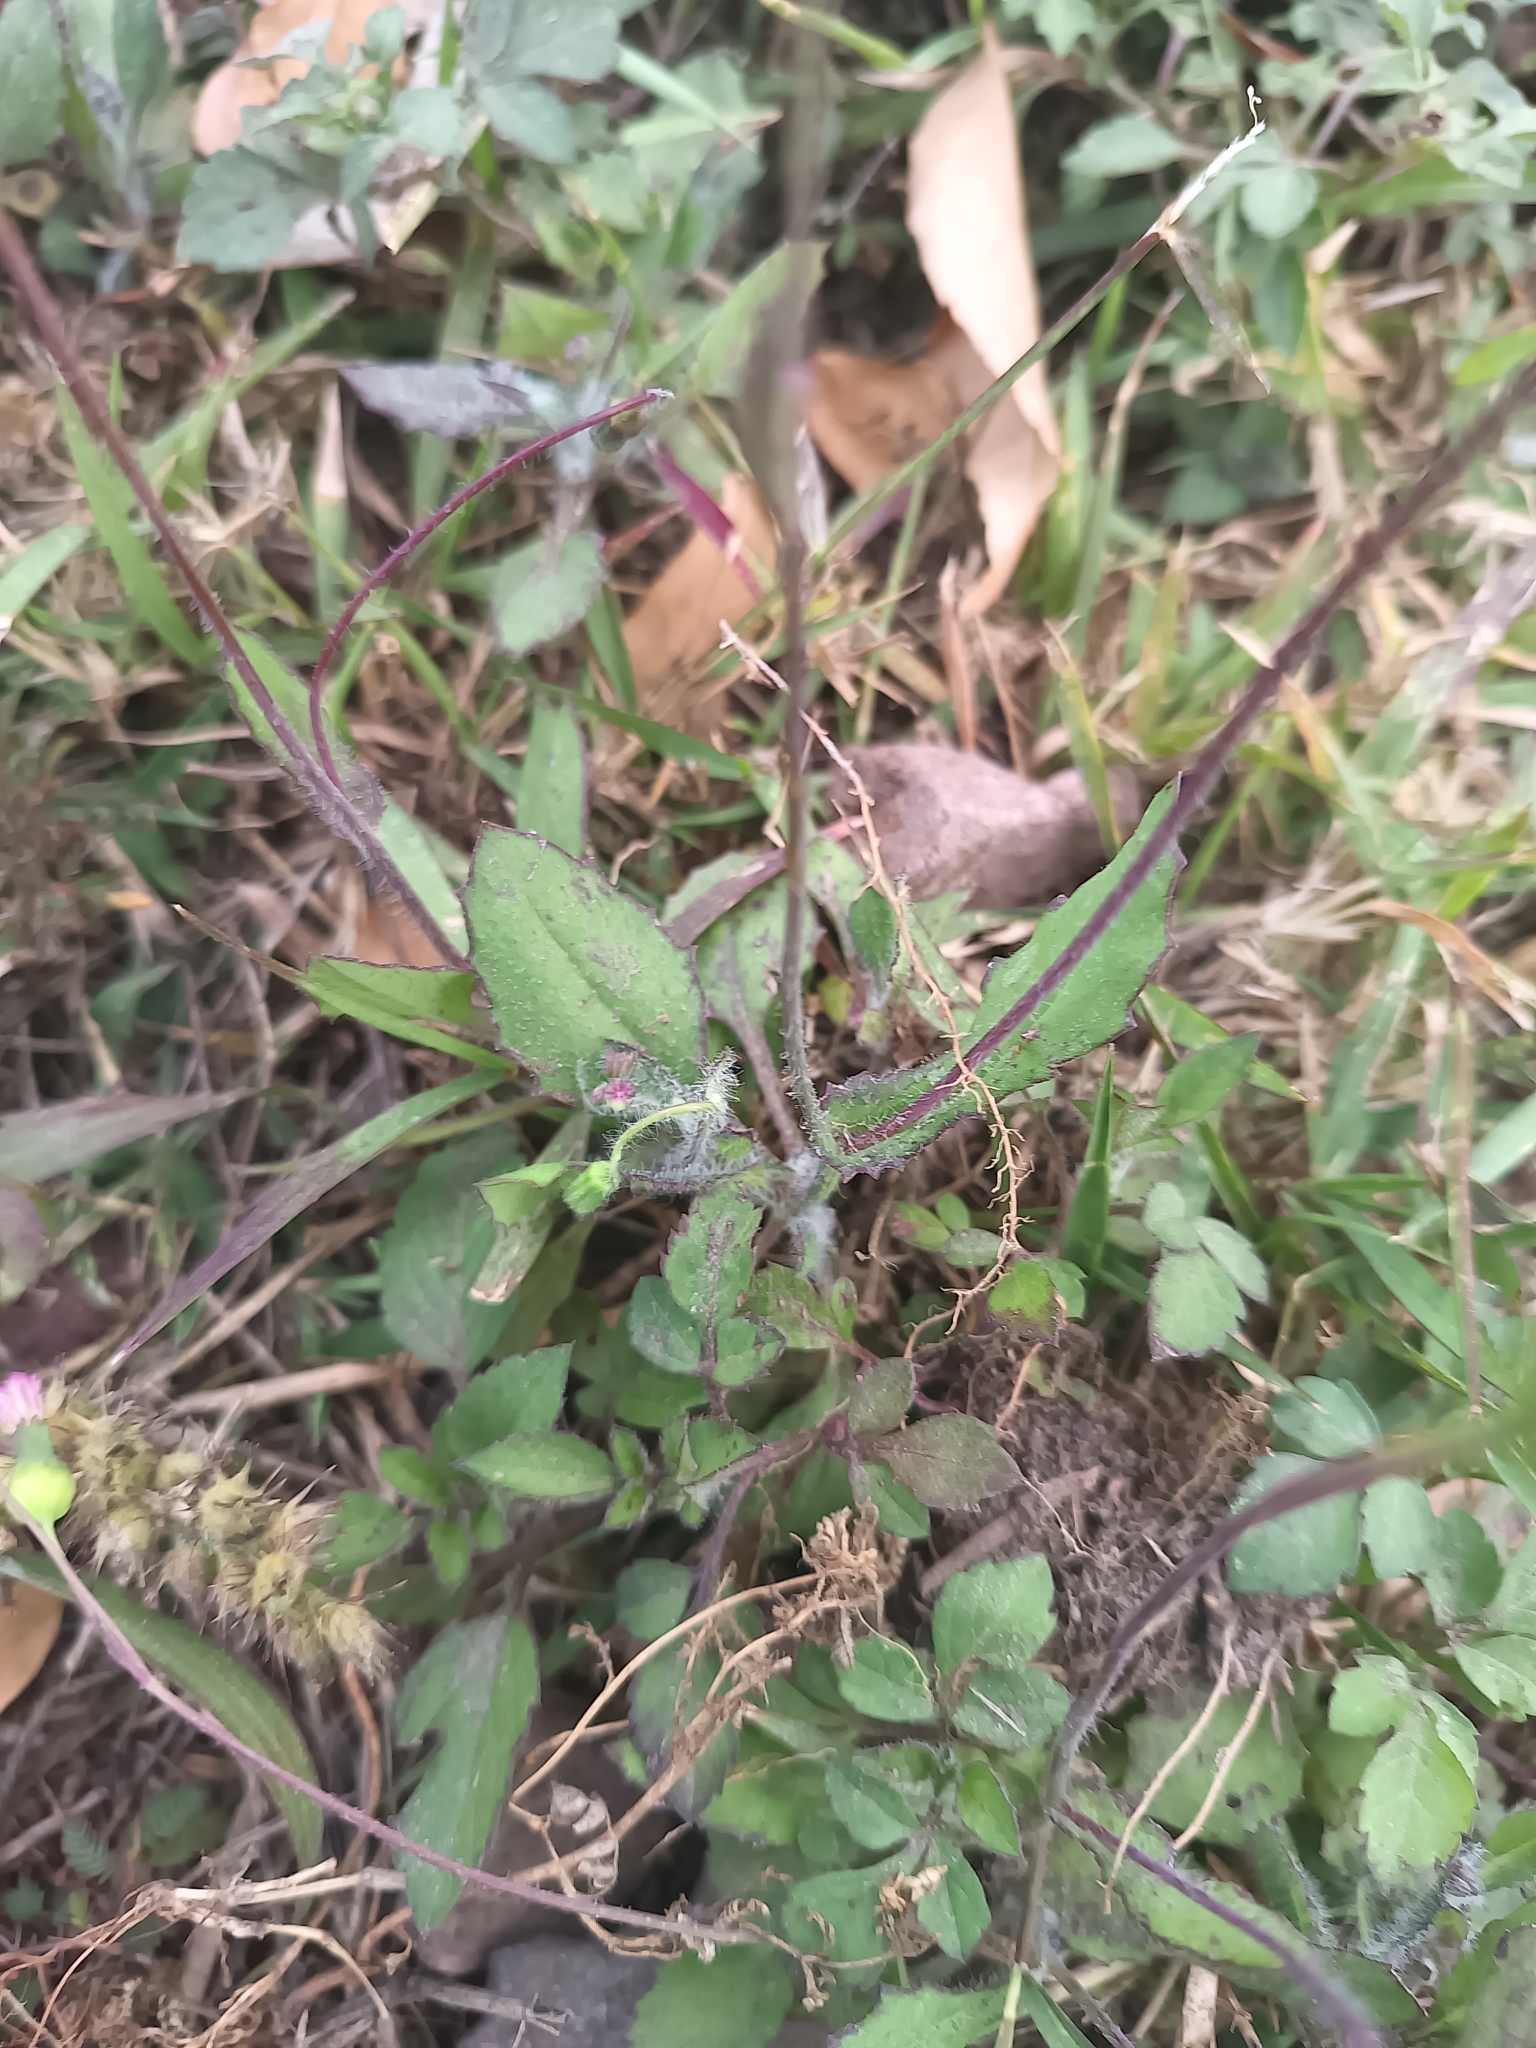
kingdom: Plantae
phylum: Tracheophyta
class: Magnoliopsida
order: Asterales
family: Asteraceae
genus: Emilia
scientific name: Emilia fosbergii
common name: Florida tasselflower
